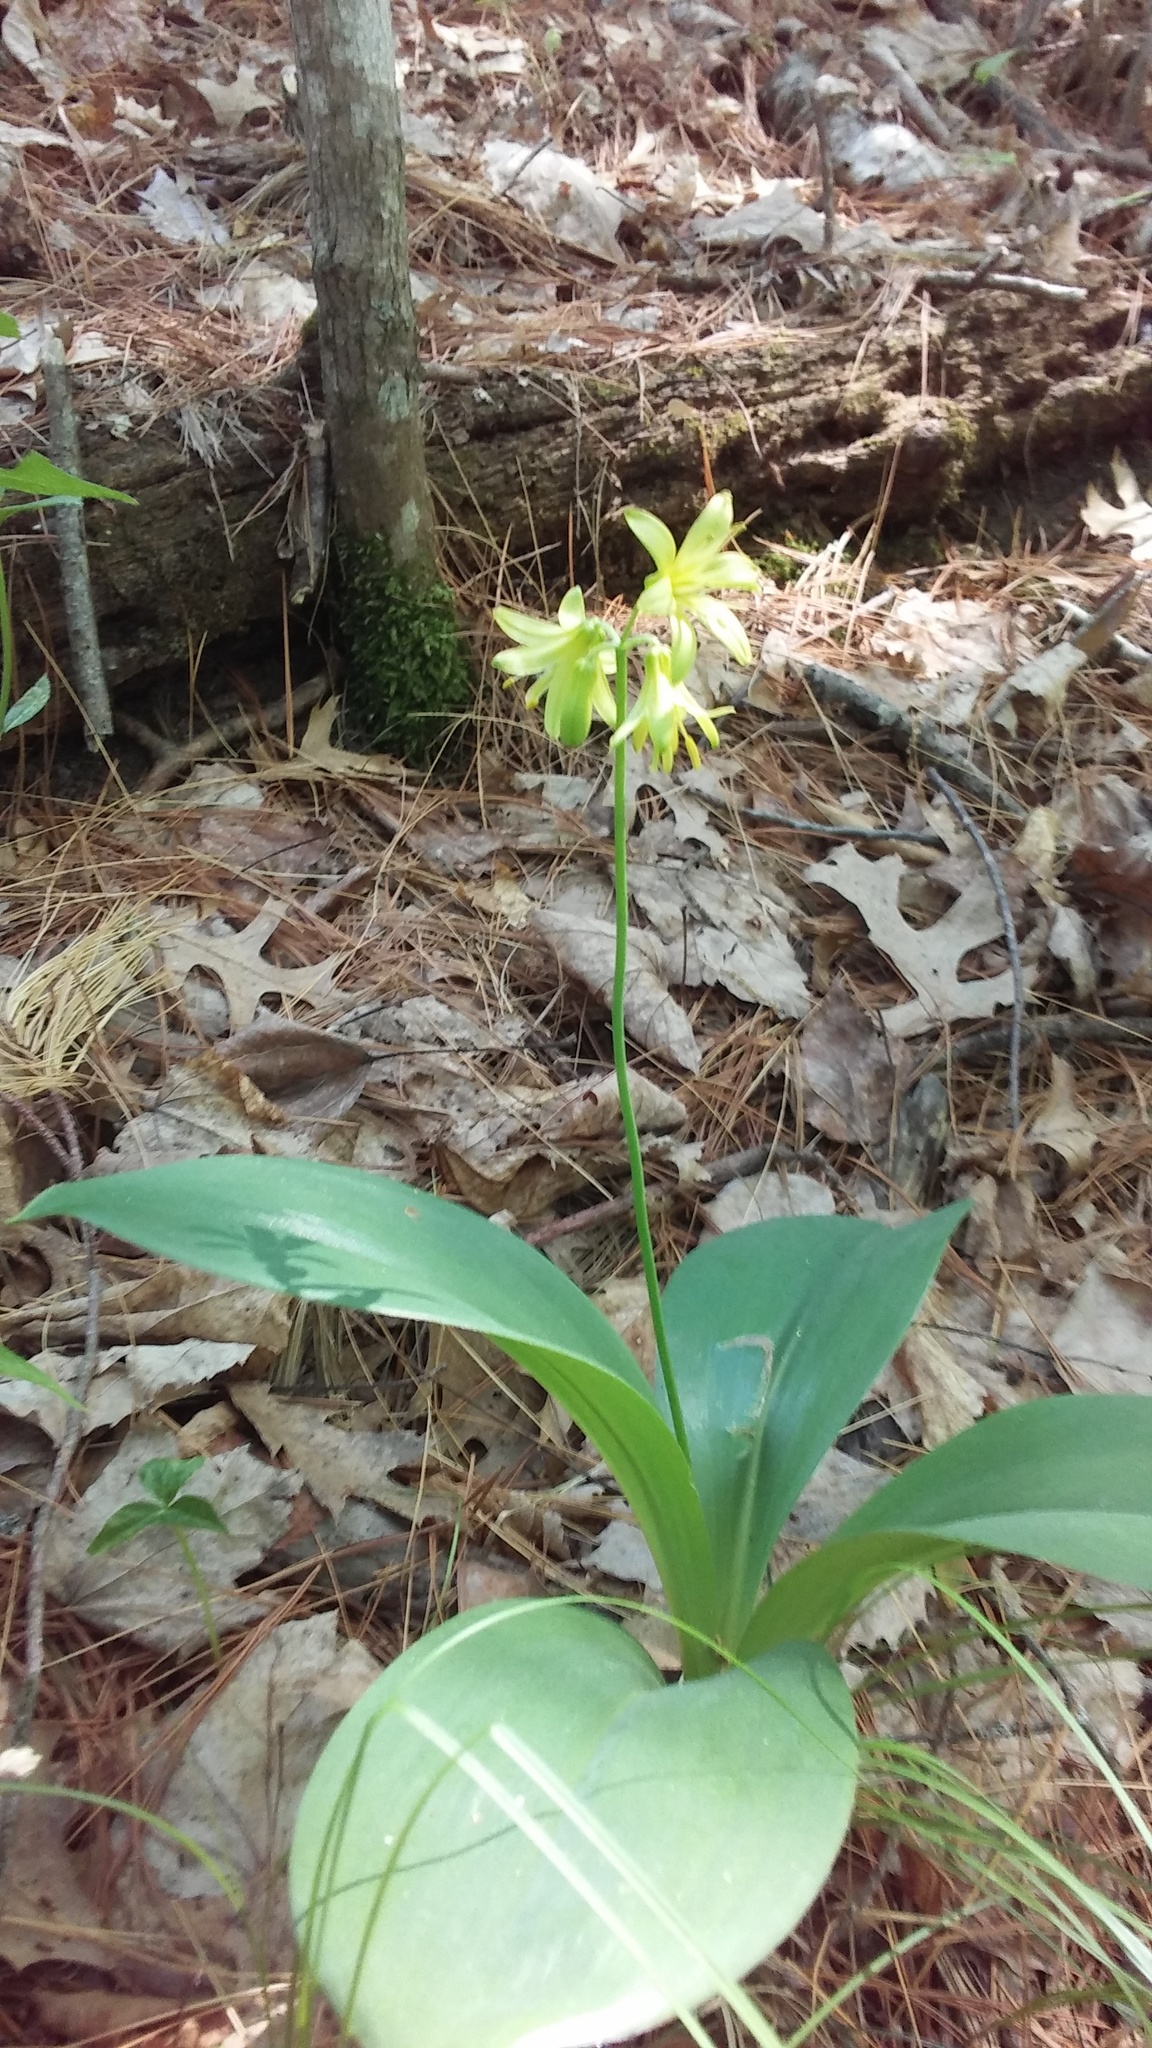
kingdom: Plantae
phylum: Tracheophyta
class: Liliopsida
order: Liliales
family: Liliaceae
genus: Clintonia
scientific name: Clintonia borealis
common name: Yellow clintonia
